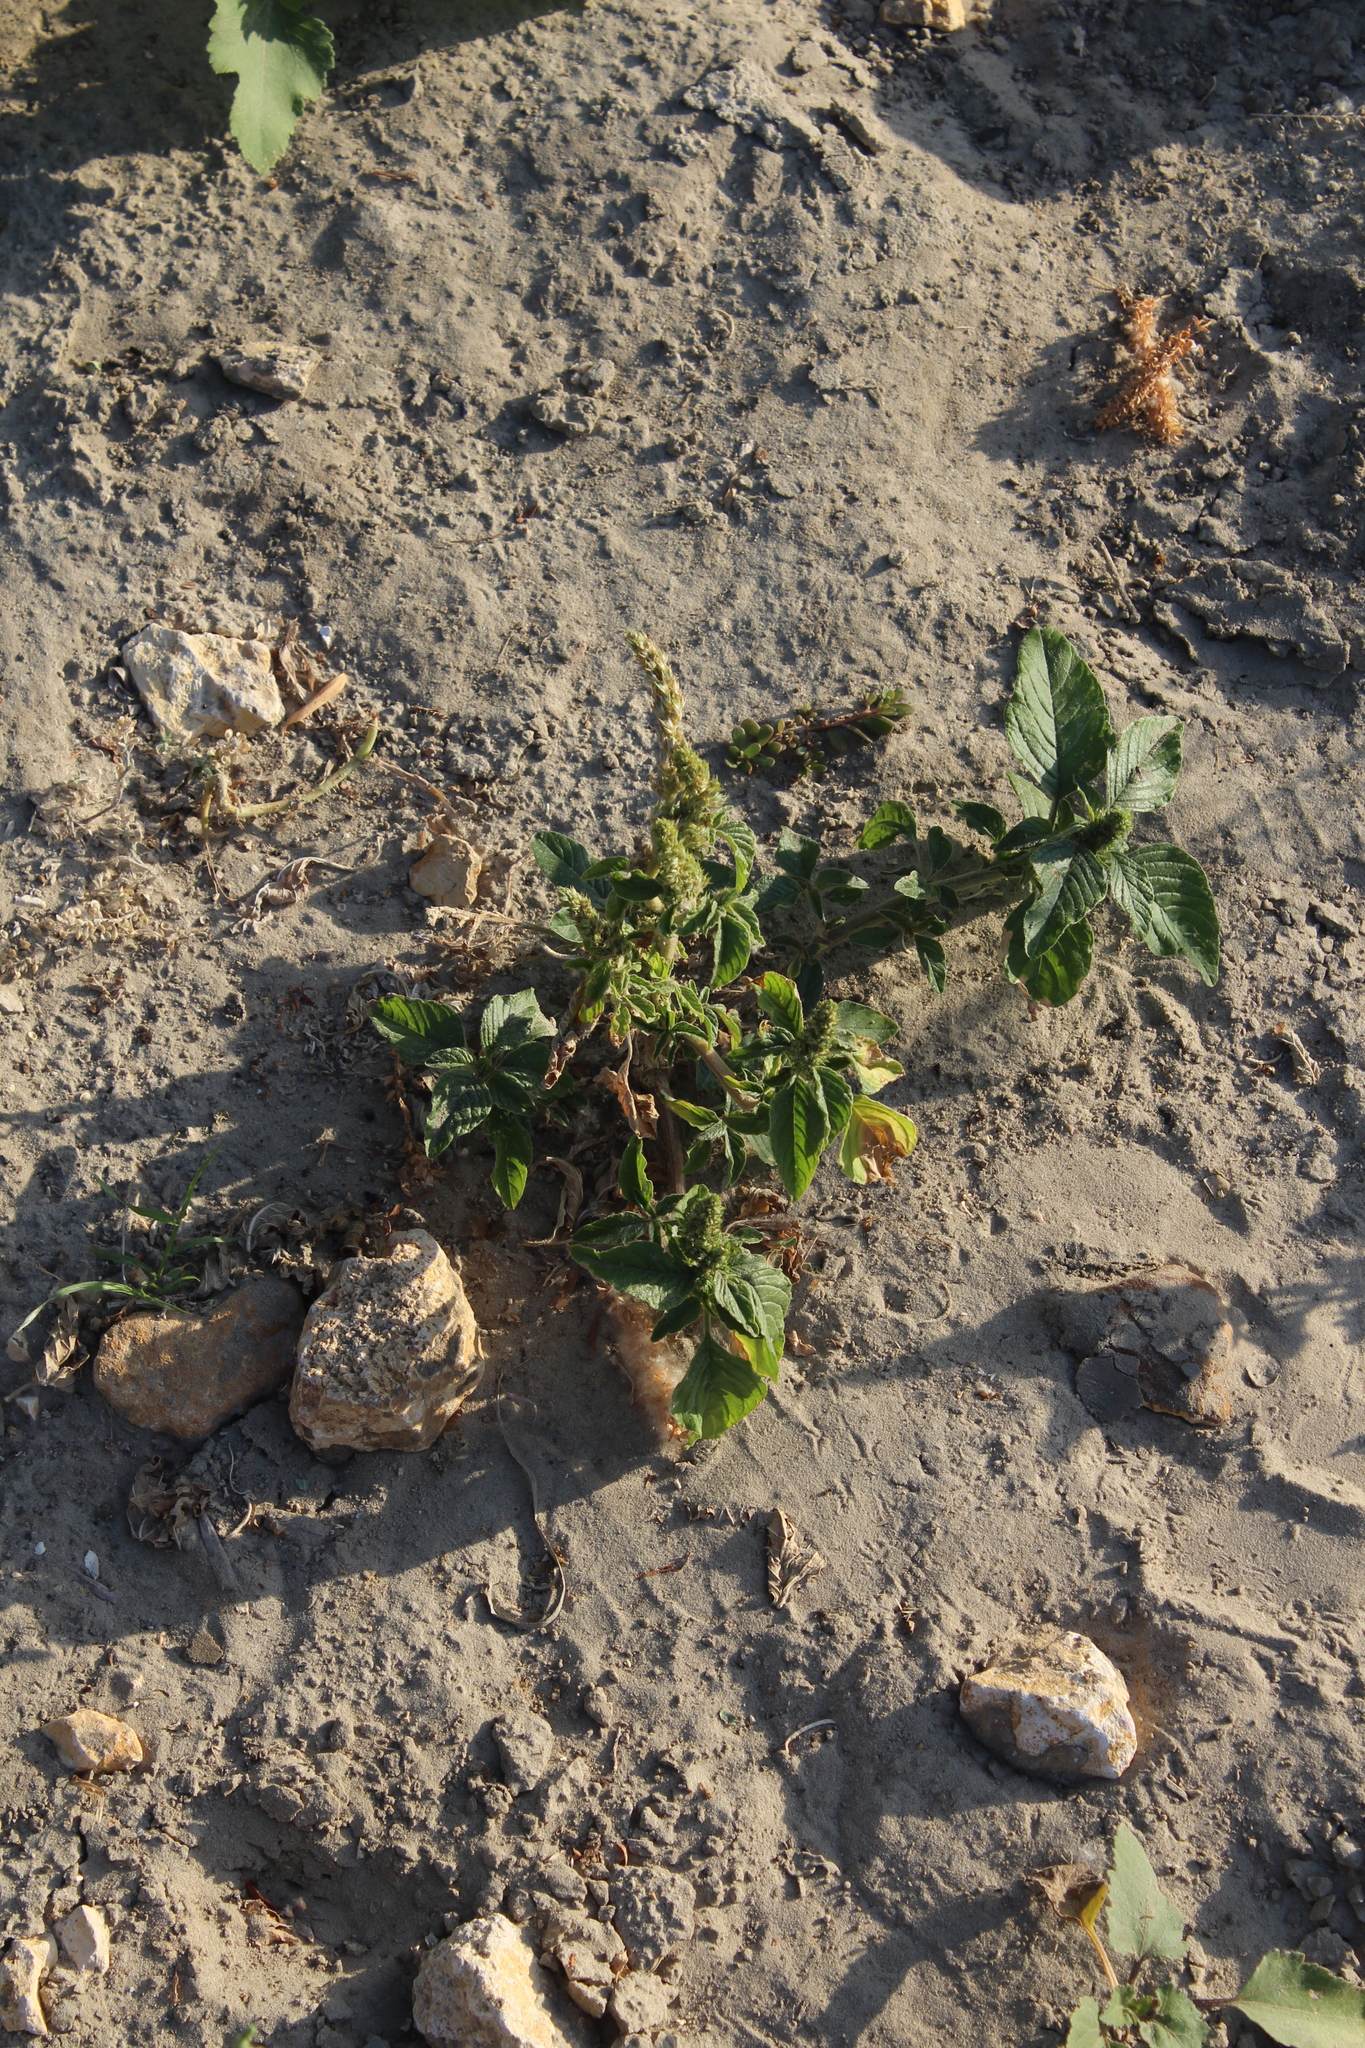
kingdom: Plantae
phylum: Tracheophyta
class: Magnoliopsida
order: Caryophyllales
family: Amaranthaceae
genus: Amaranthus
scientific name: Amaranthus retroflexus
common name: Redroot amaranth
